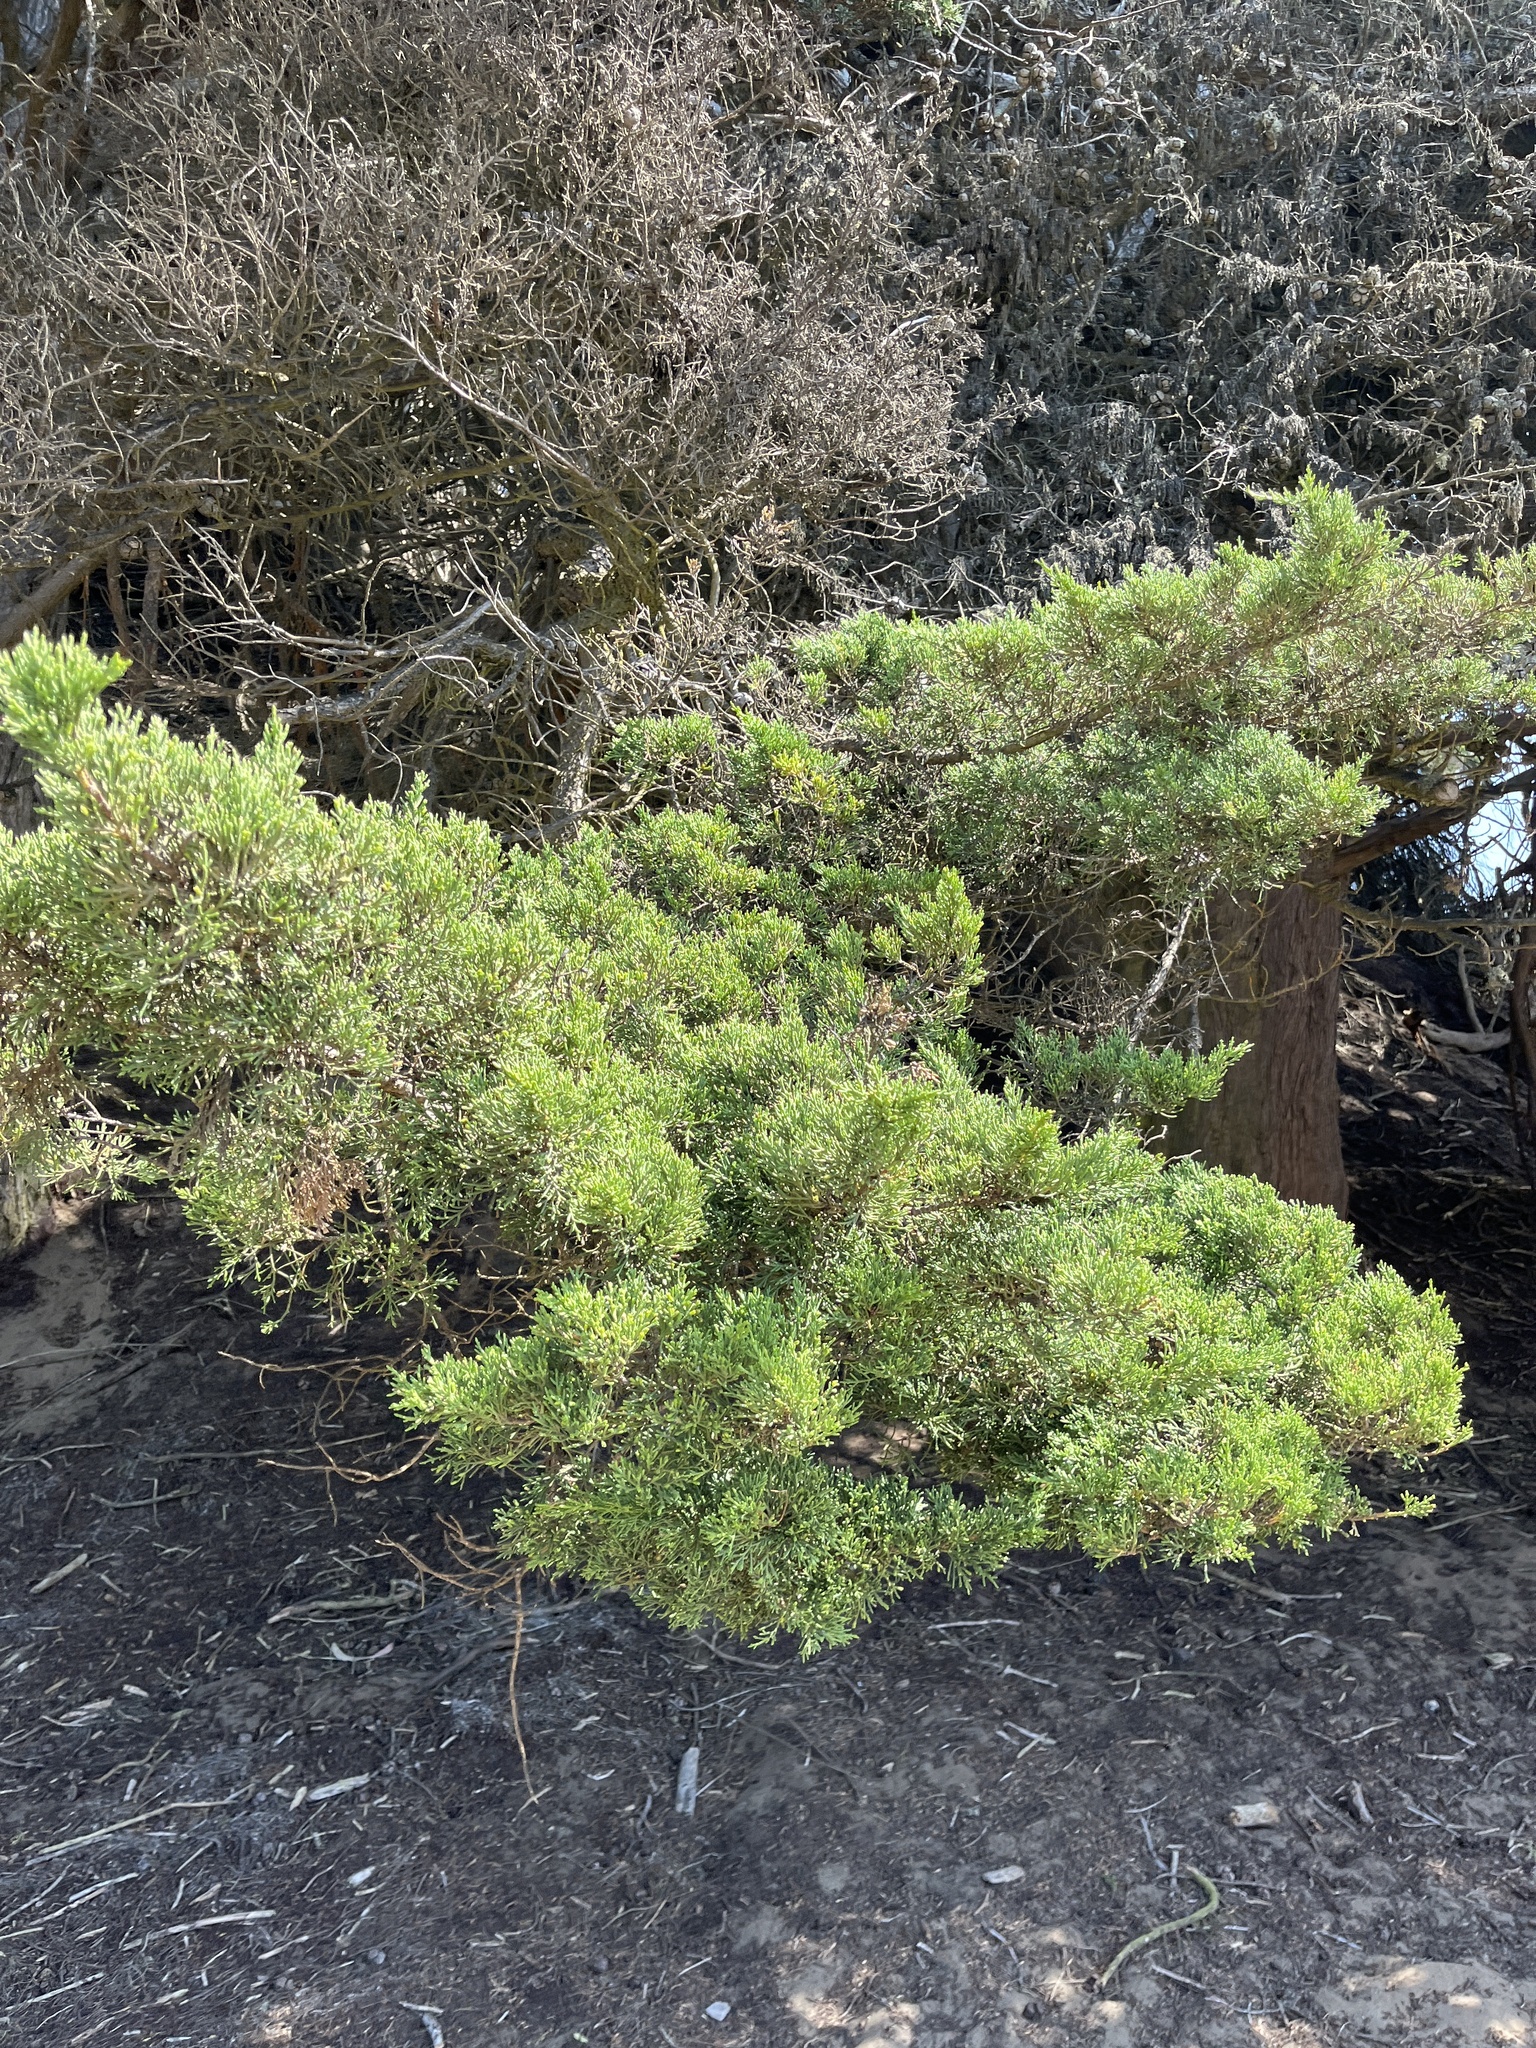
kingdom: Plantae
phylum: Tracheophyta
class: Pinopsida
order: Pinales
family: Cupressaceae
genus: Cupressus
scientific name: Cupressus macrocarpa
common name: Monterey cypress
